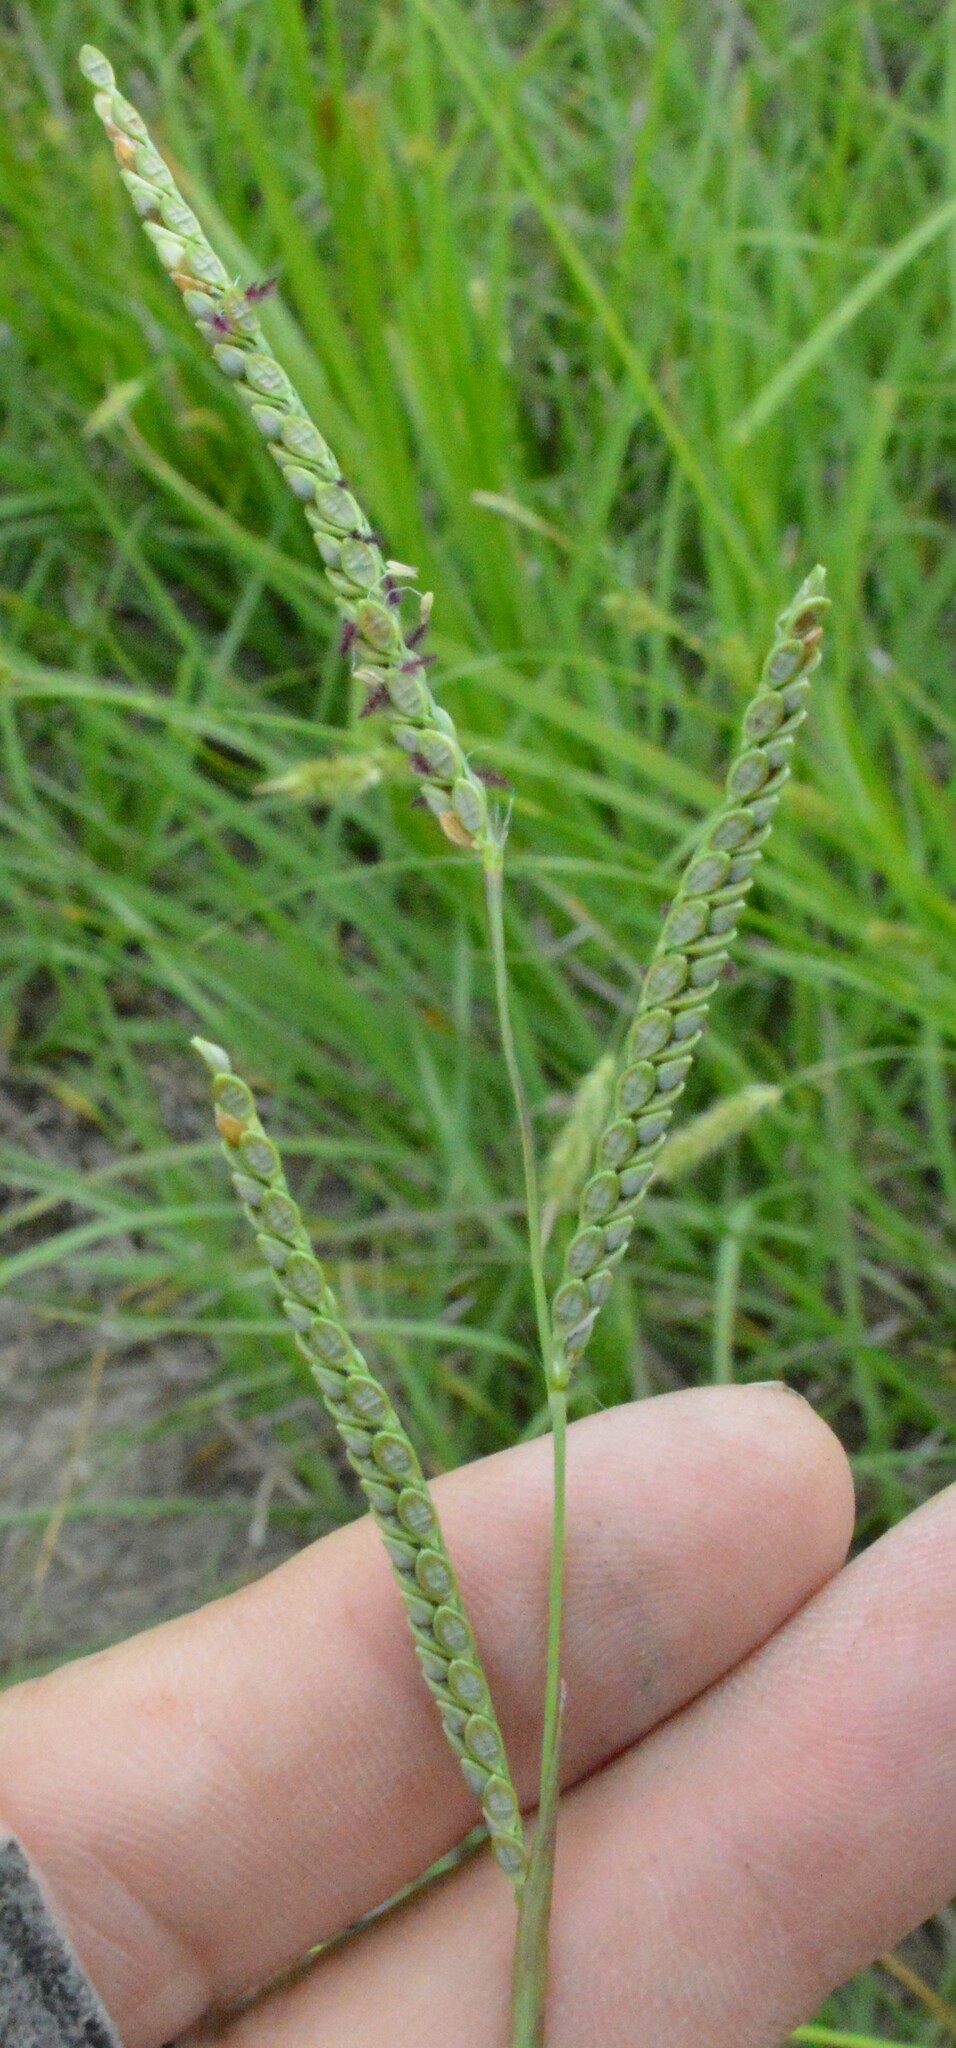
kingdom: Plantae
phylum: Tracheophyta
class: Liliopsida
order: Poales
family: Poaceae
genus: Paspalum
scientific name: Paspalum plicatulum
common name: Top paspalum
